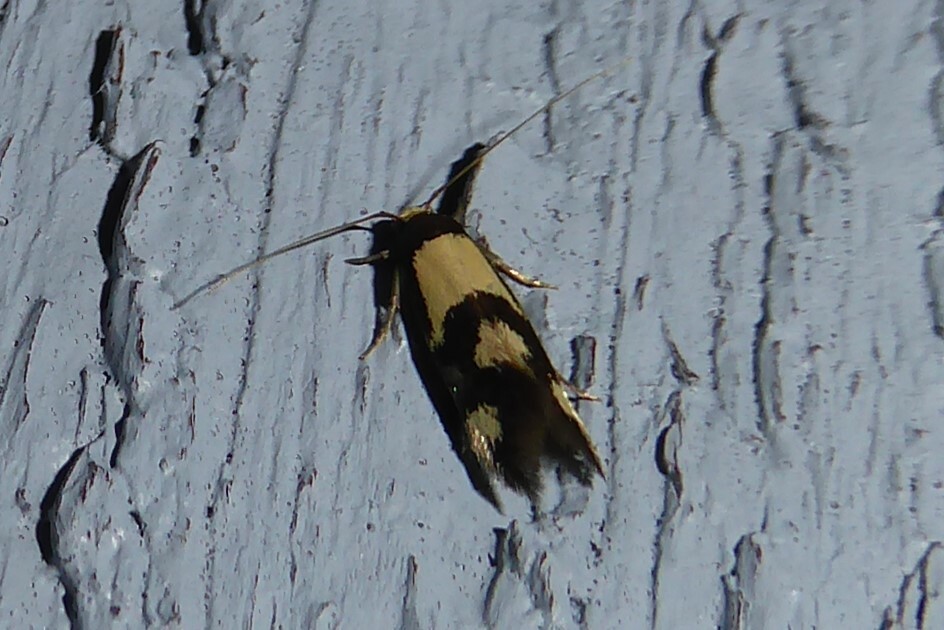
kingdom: Animalia
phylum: Arthropoda
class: Insecta
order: Lepidoptera
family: Tineidae
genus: Opogona
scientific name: Opogona comptella
